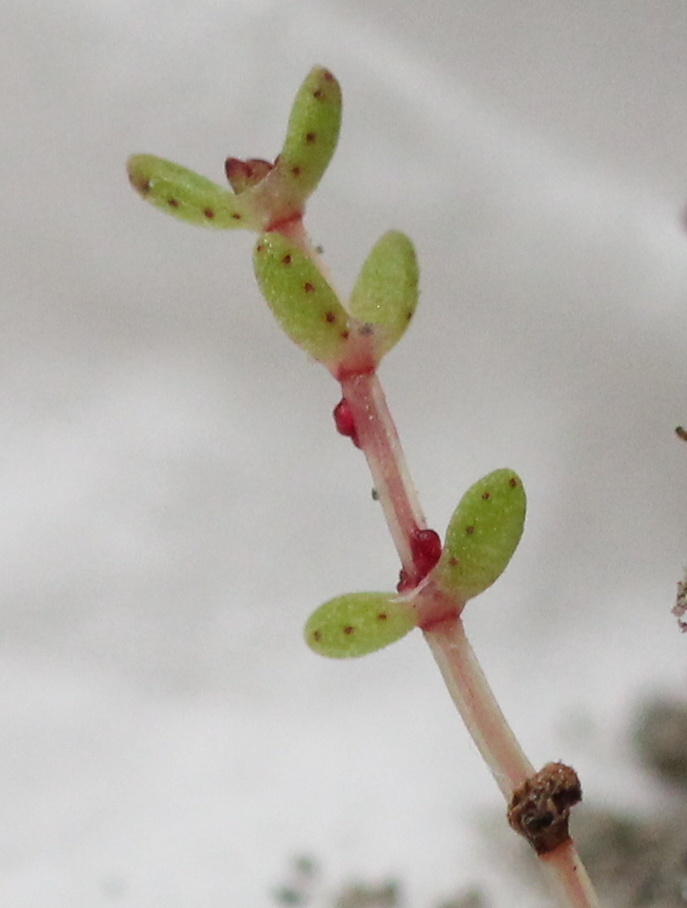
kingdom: Plantae
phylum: Tracheophyta
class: Magnoliopsida
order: Saxifragales
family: Crassulaceae
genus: Crassula
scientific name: Crassula connata
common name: Erect pygmyweed
